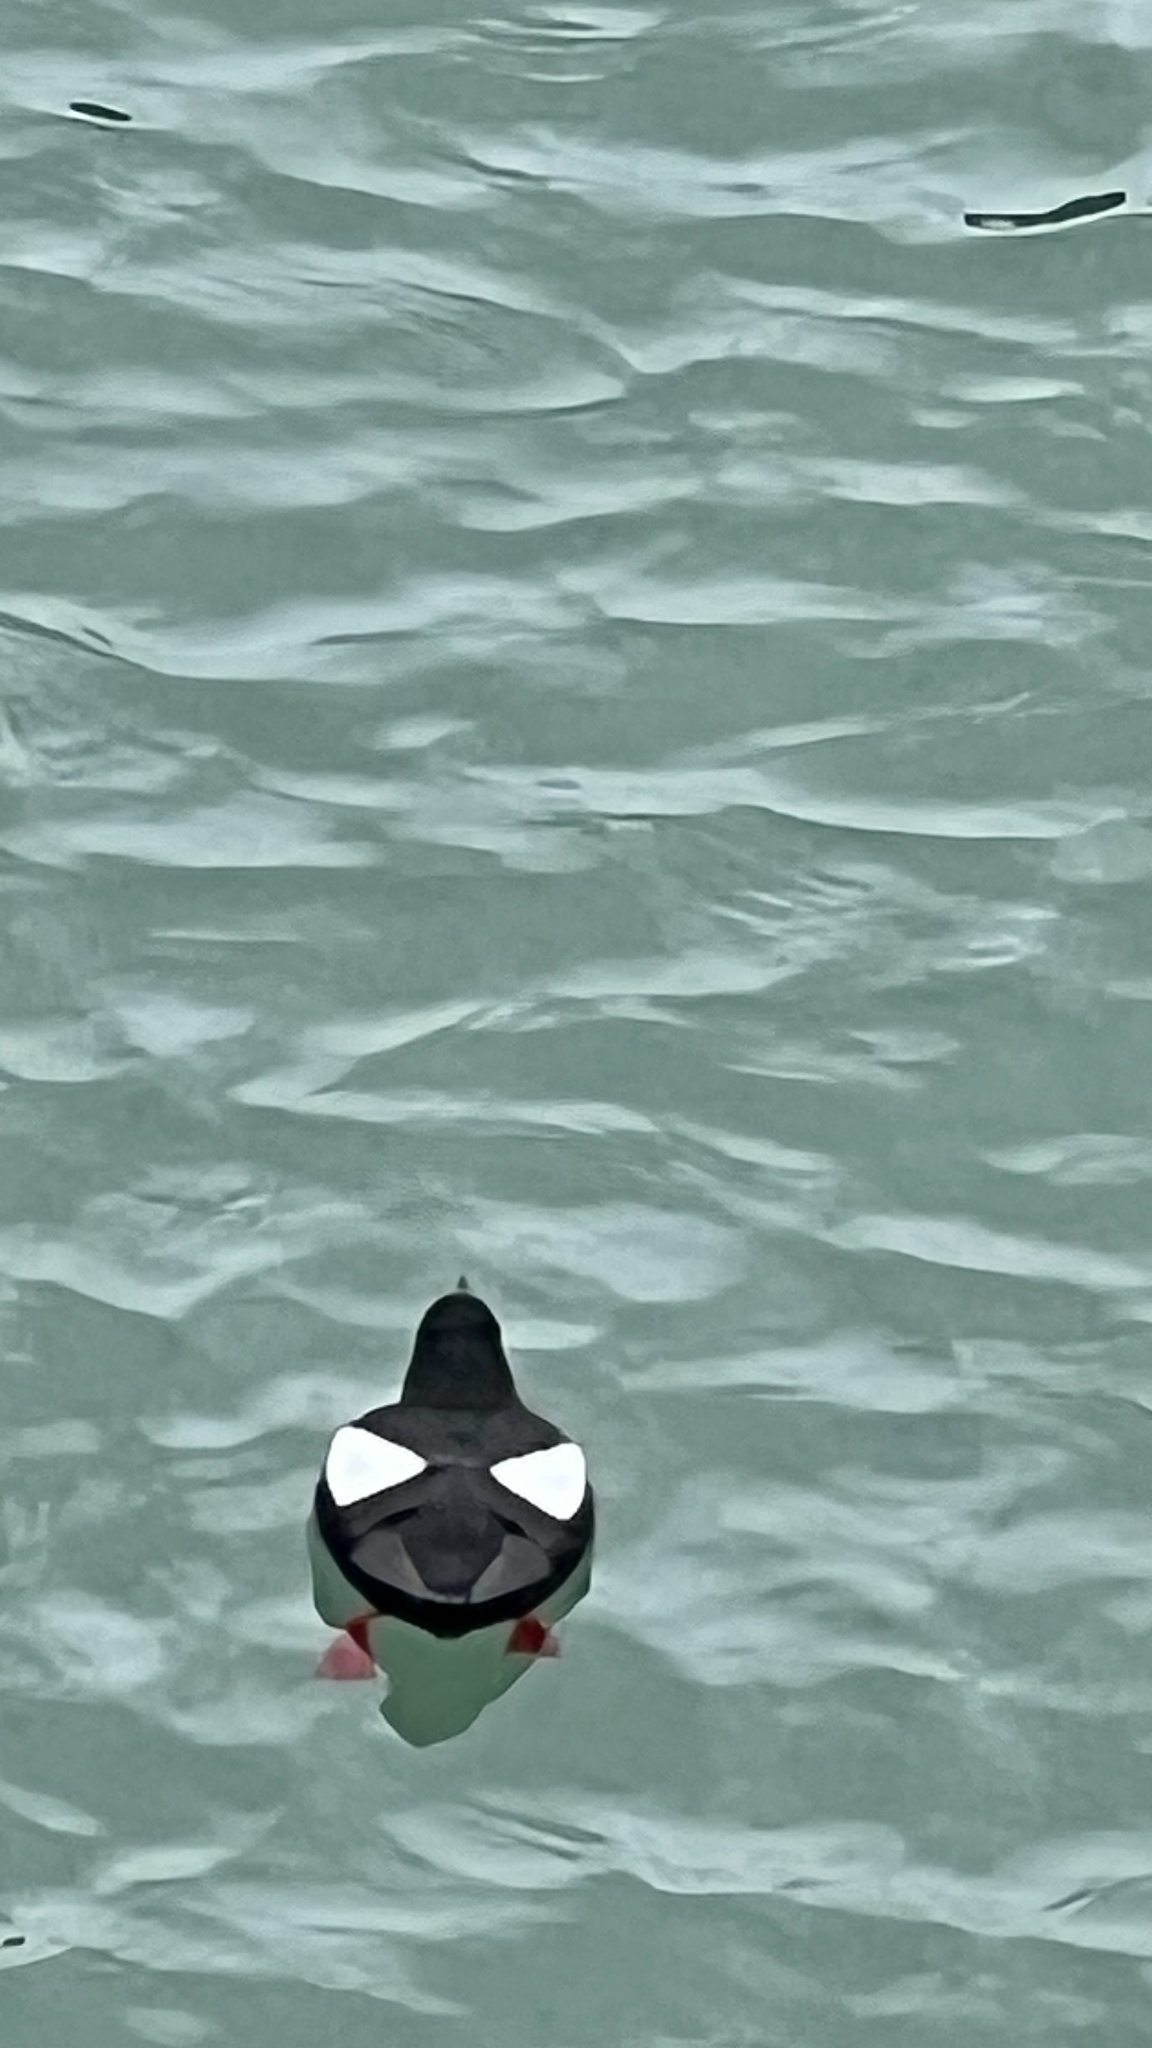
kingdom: Animalia
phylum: Chordata
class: Aves
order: Charadriiformes
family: Alcidae
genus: Cepphus
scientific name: Cepphus grylle
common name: Black guillemot
